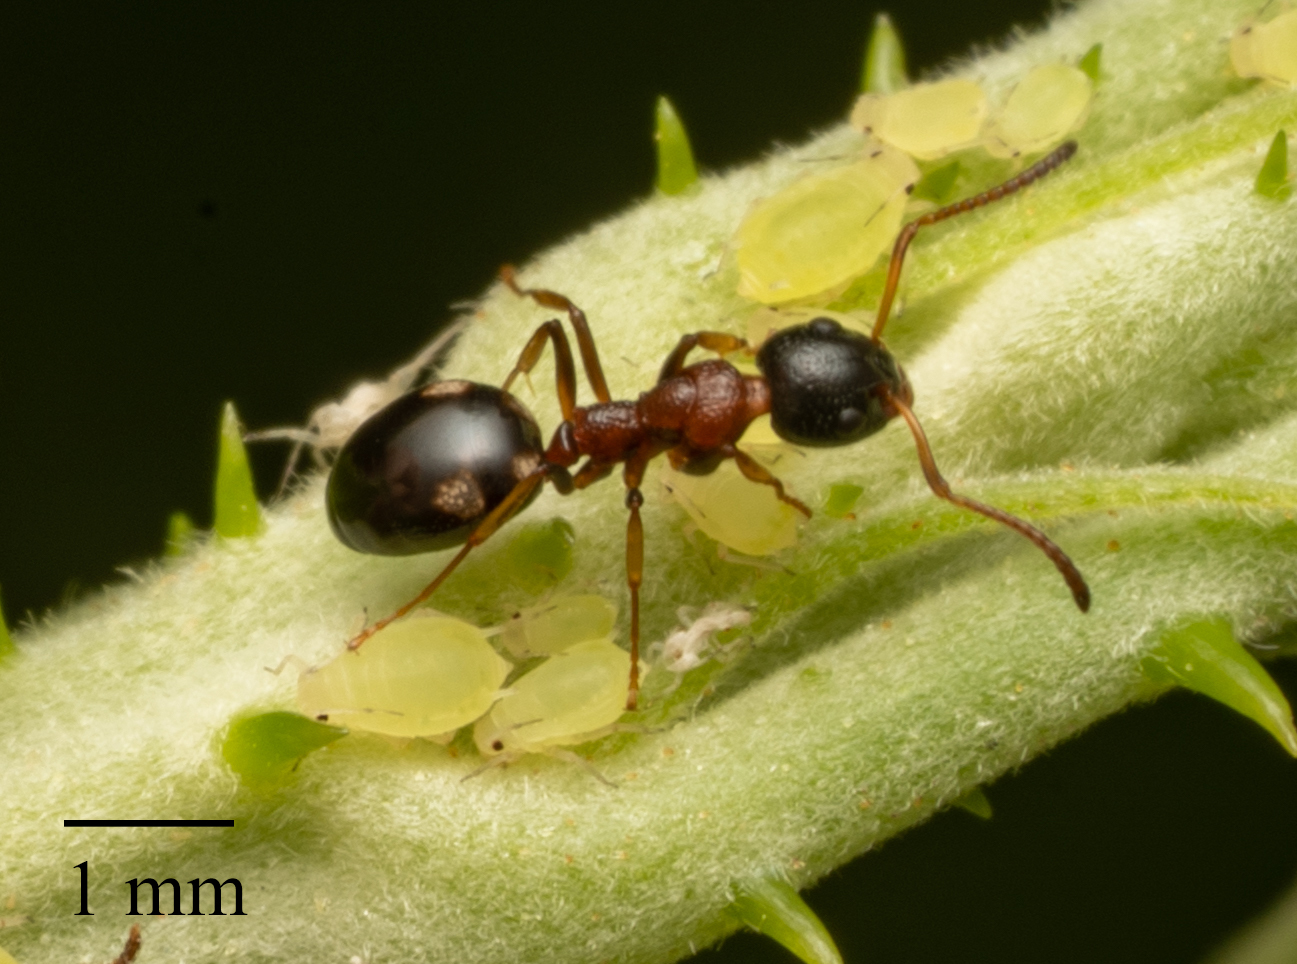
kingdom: Animalia
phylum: Arthropoda
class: Insecta
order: Hymenoptera
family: Formicidae
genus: Dolichoderus
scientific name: Dolichoderus quadripunctatus
